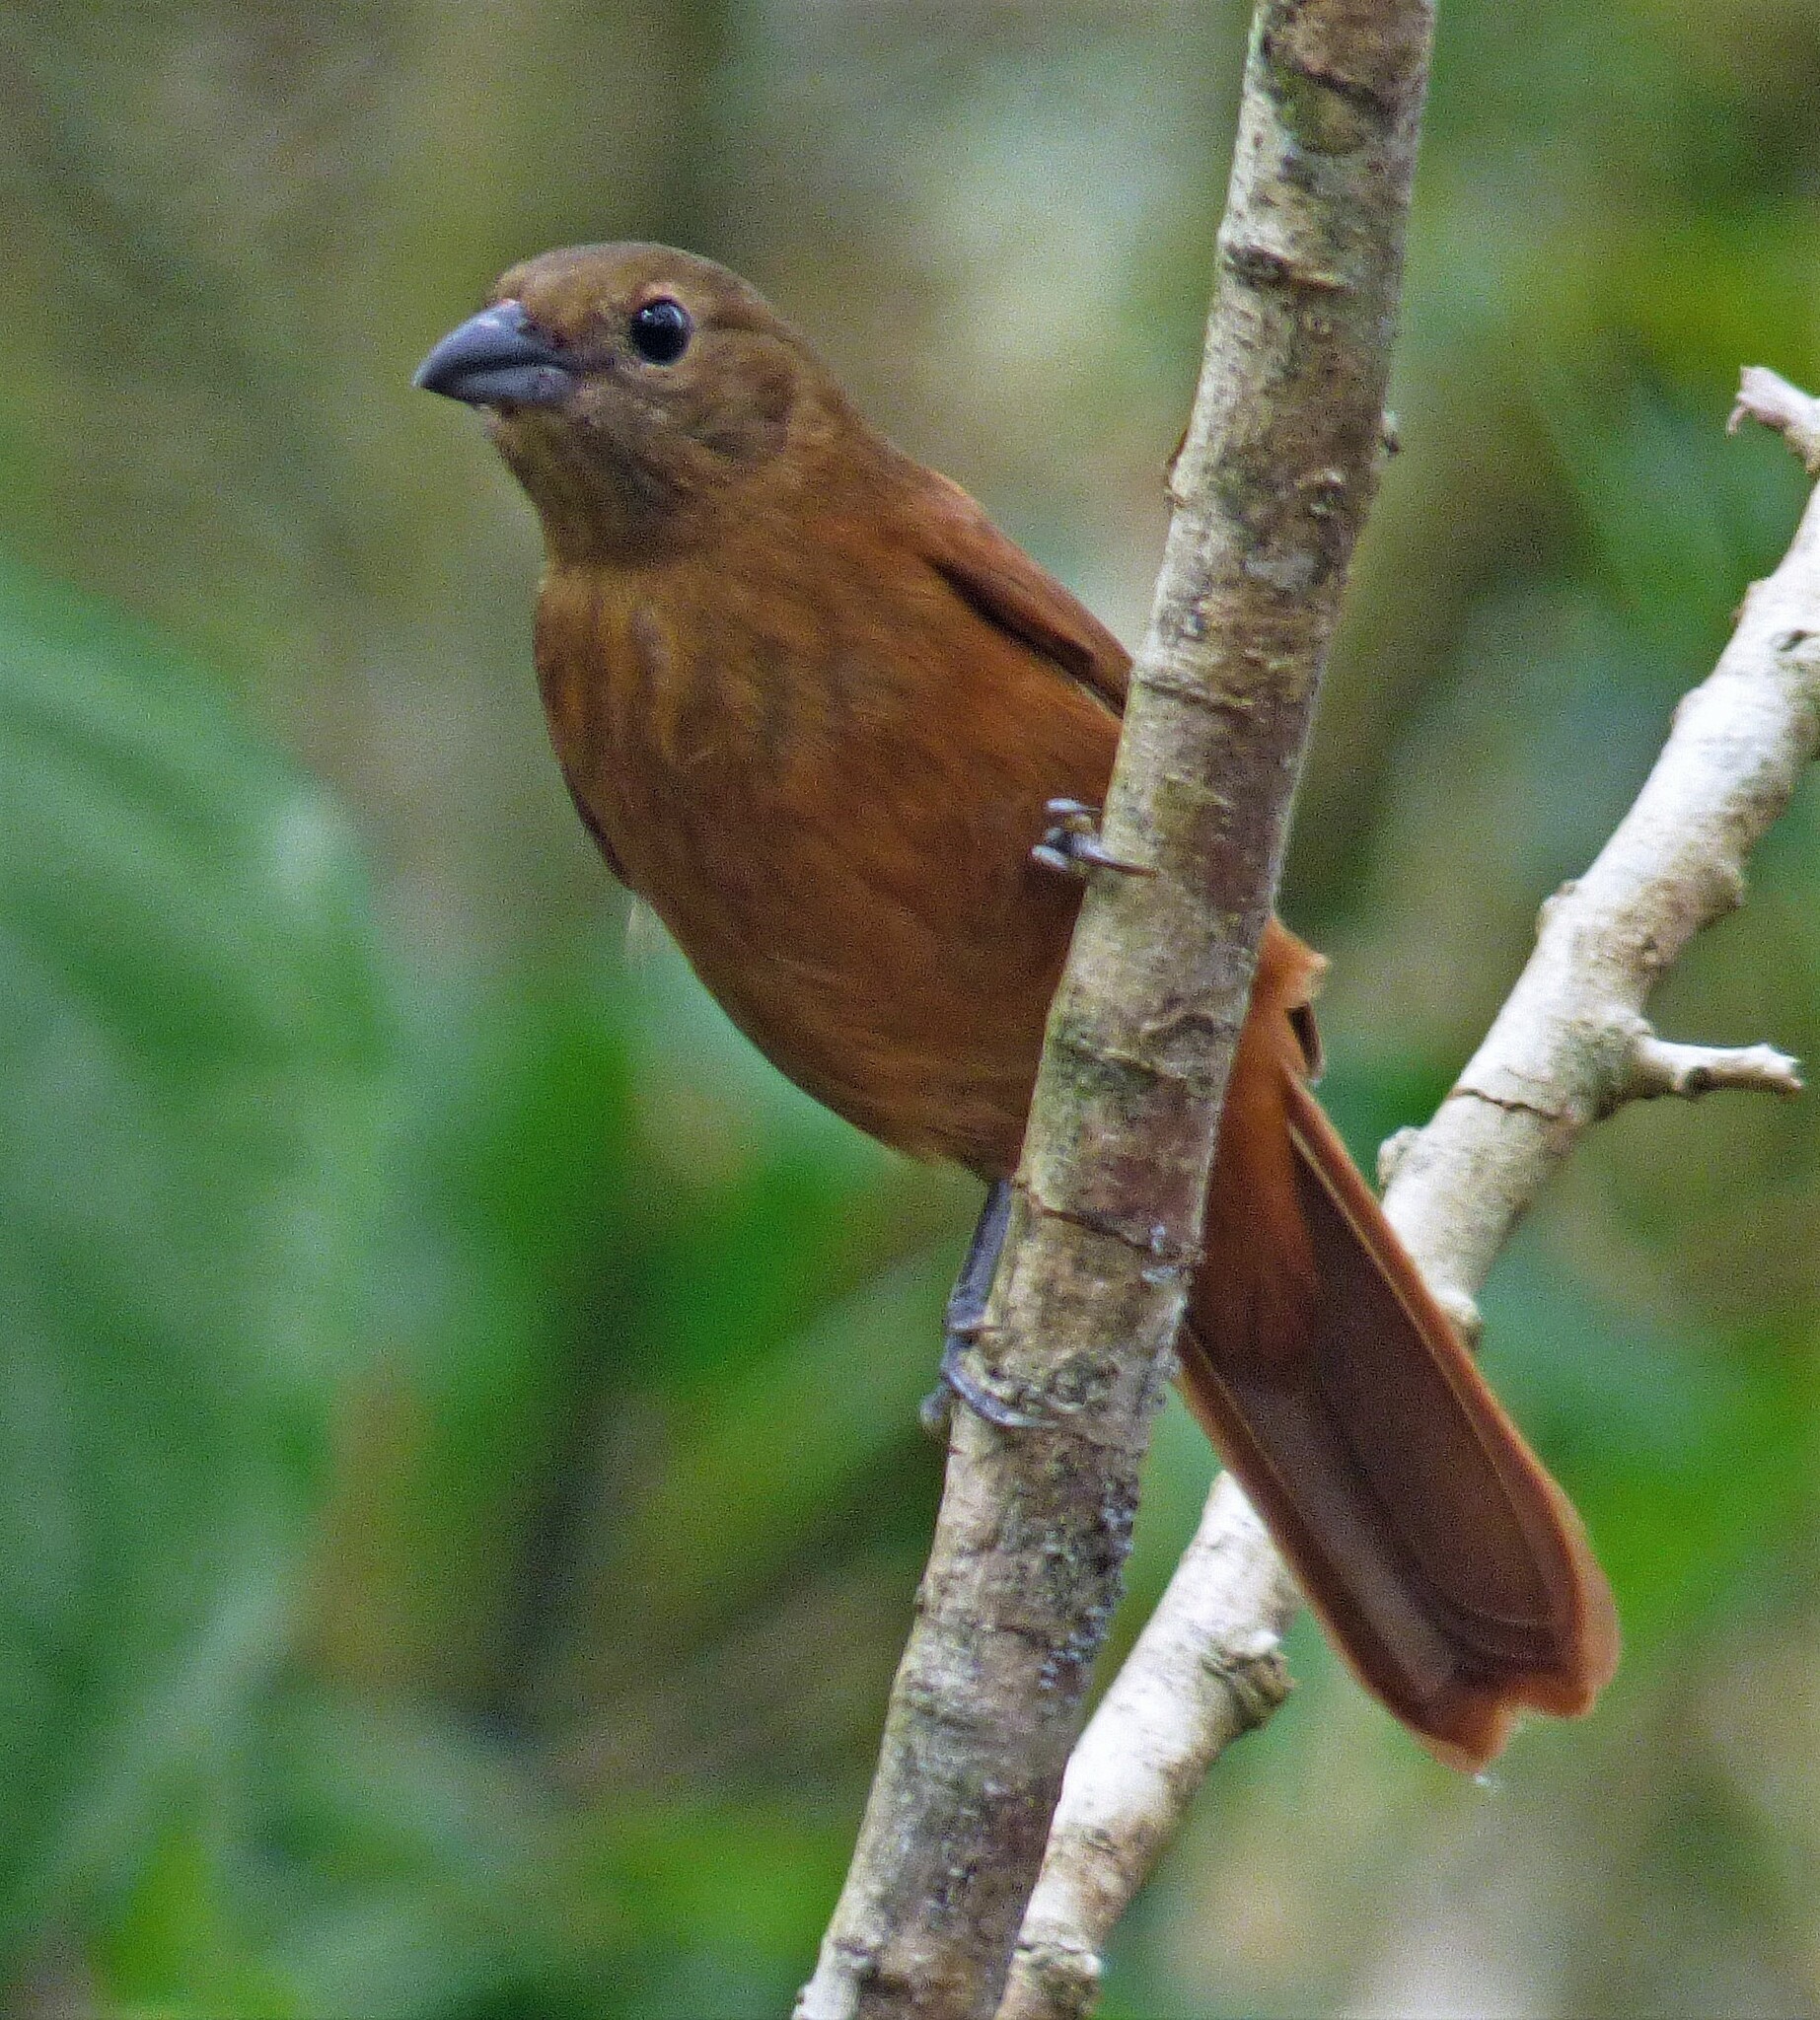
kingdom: Animalia
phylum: Chordata
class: Aves
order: Passeriformes
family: Thraupidae
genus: Tachyphonus
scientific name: Tachyphonus coronatus
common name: Ruby-crowned tanager
